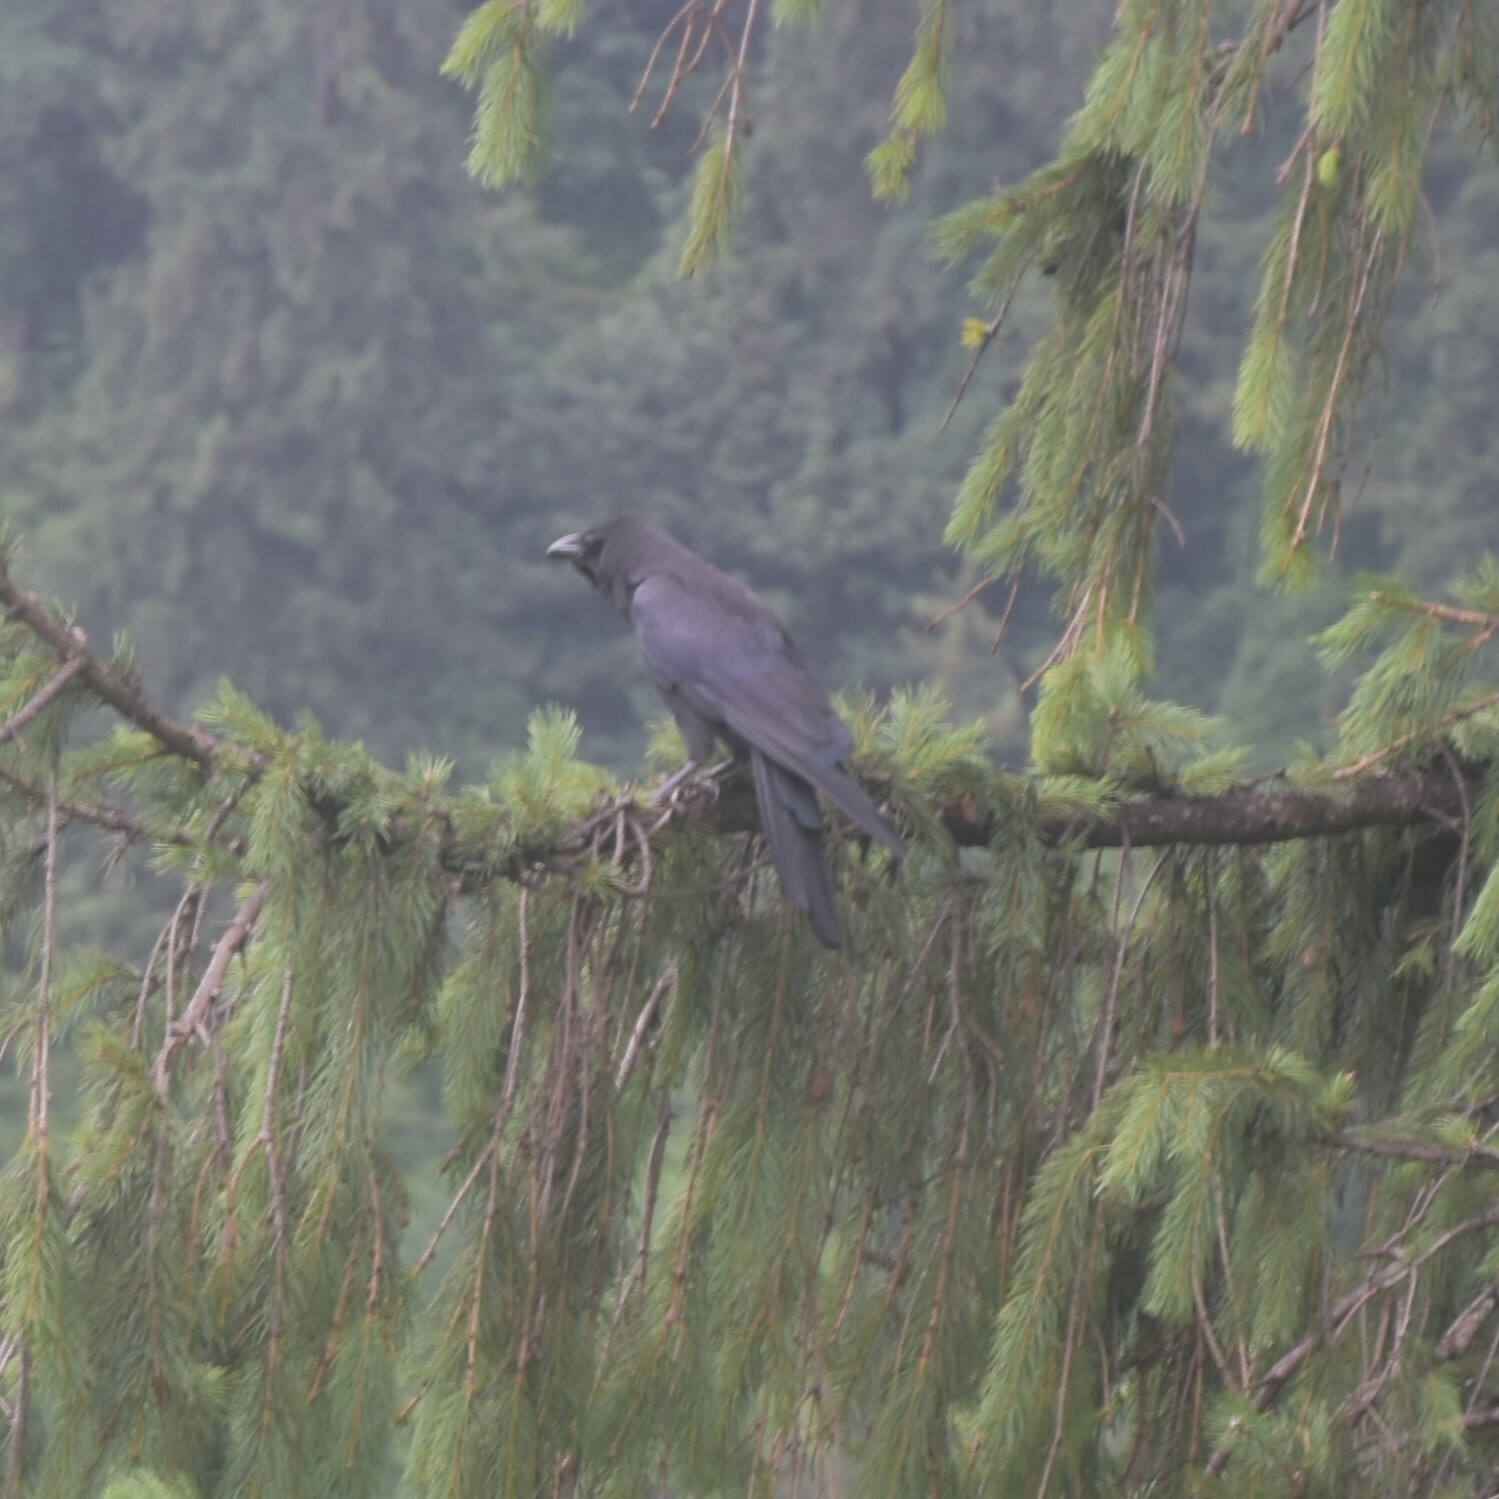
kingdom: Animalia
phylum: Chordata
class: Aves
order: Passeriformes
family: Corvidae
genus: Corvus
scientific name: Corvus macrorhynchos
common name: Large-billed crow
